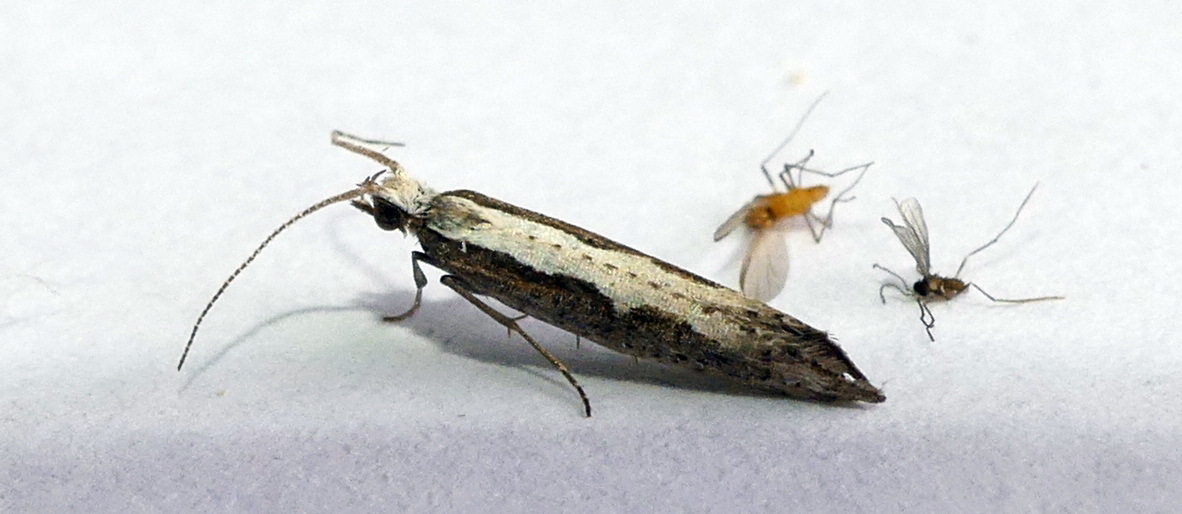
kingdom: Animalia
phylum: Arthropoda
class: Insecta
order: Lepidoptera
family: Plutellidae
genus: Plutella
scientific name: Plutella xylostella
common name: Diamond-back moth
